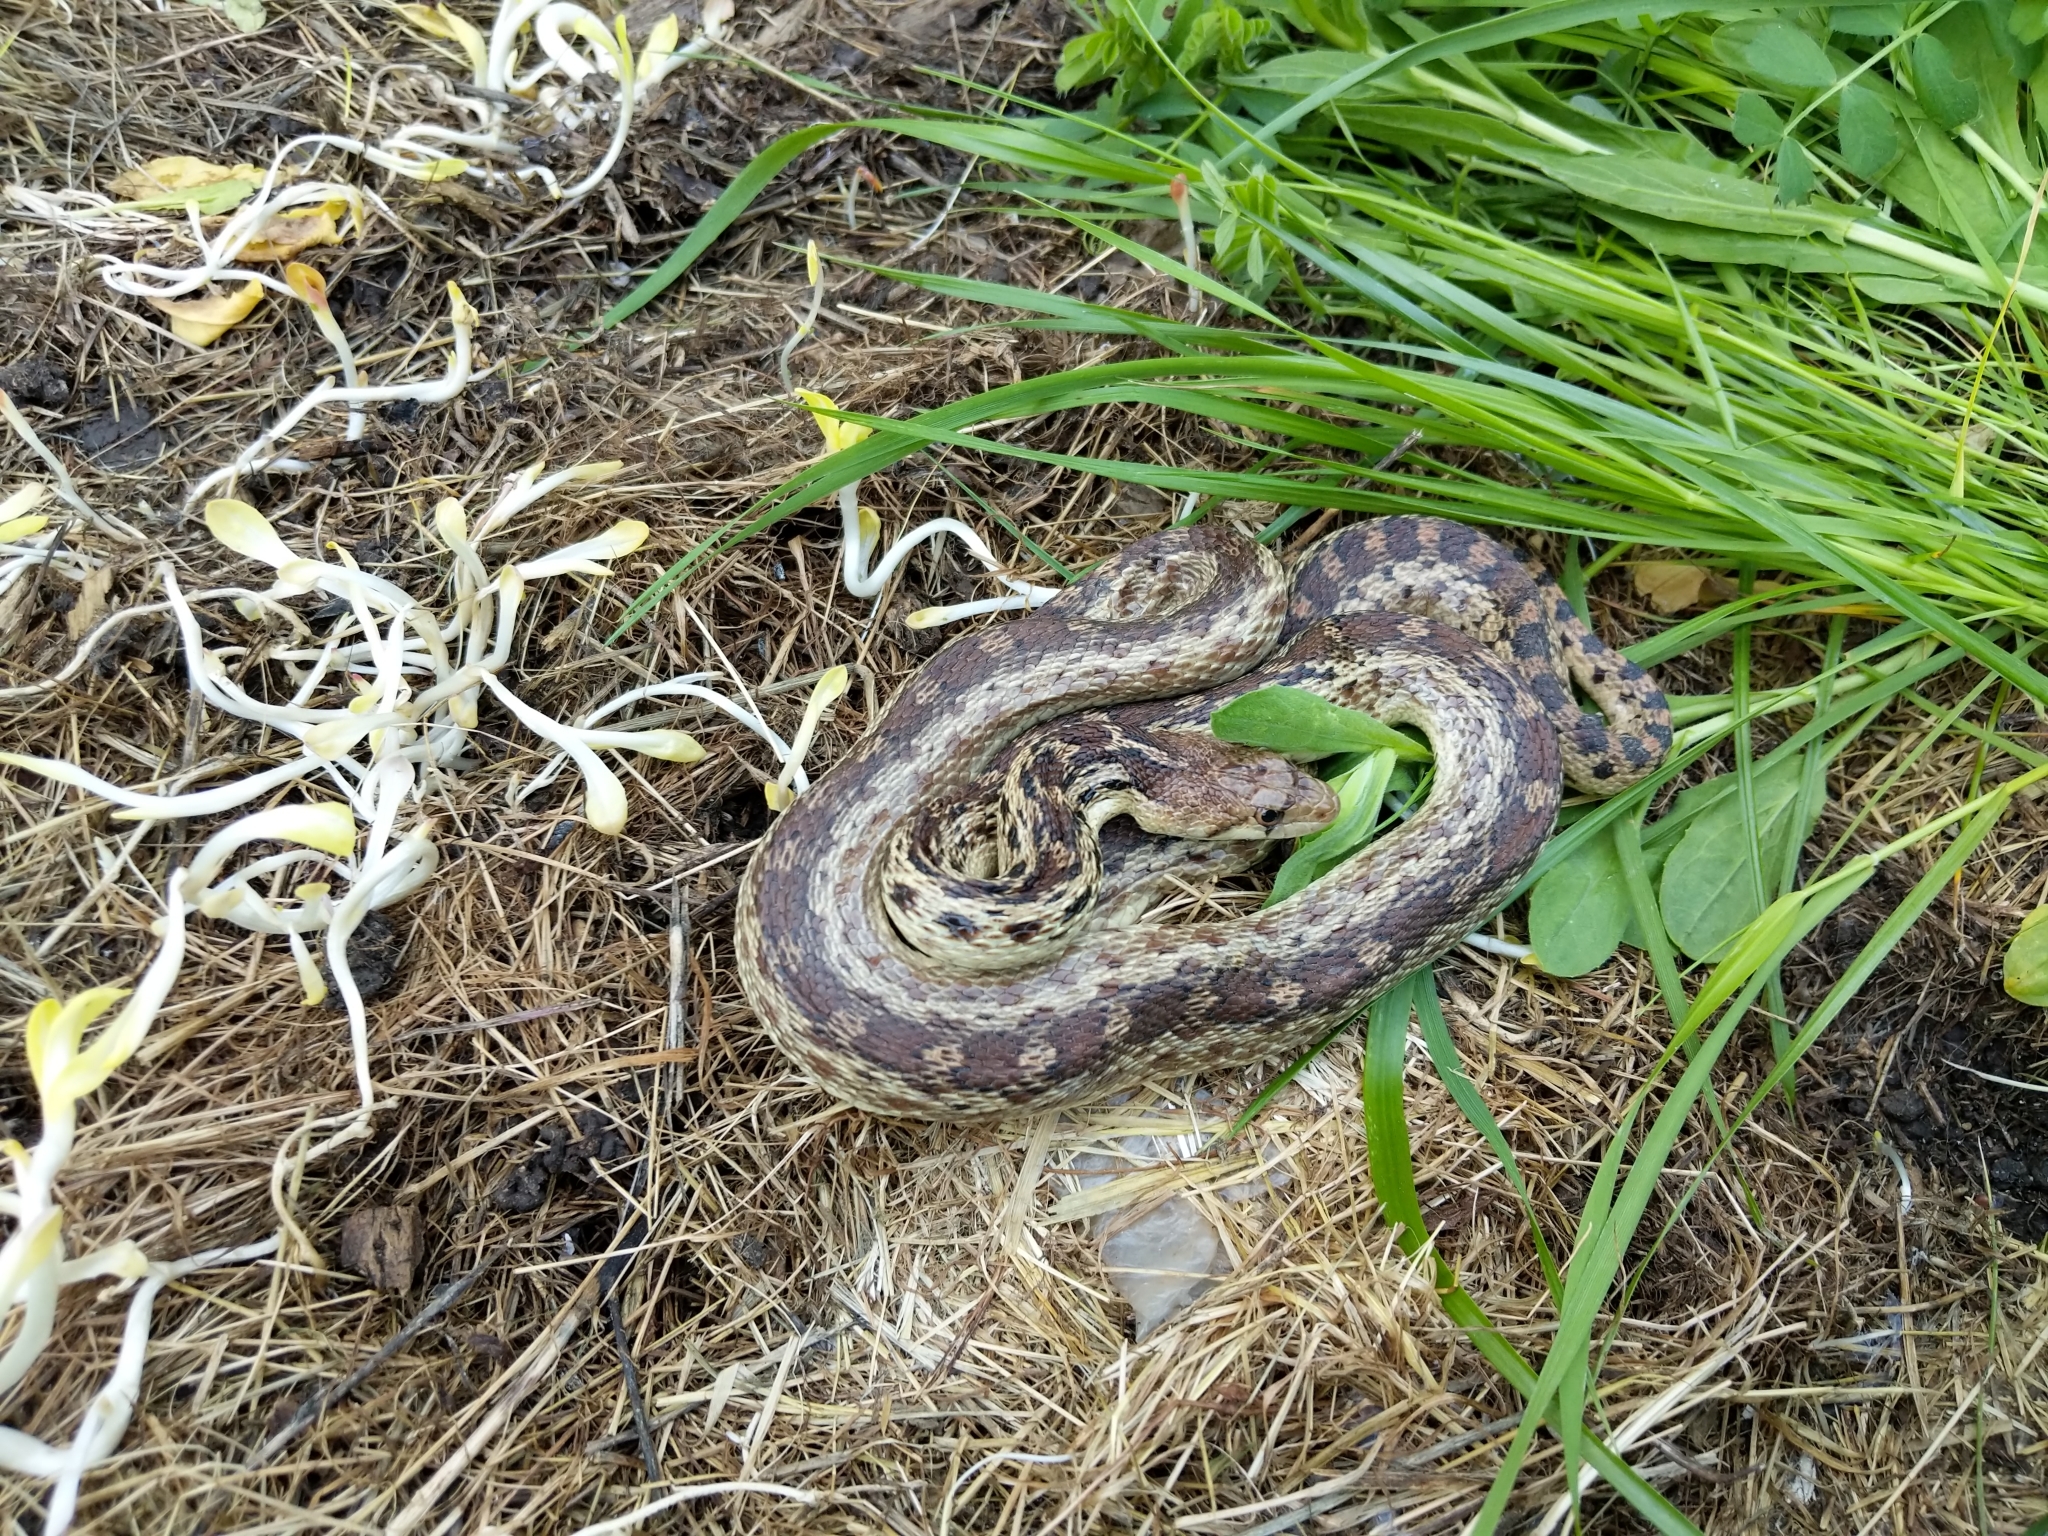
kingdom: Animalia
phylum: Chordata
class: Squamata
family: Colubridae
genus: Pituophis
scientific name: Pituophis catenifer
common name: Gopher snake
